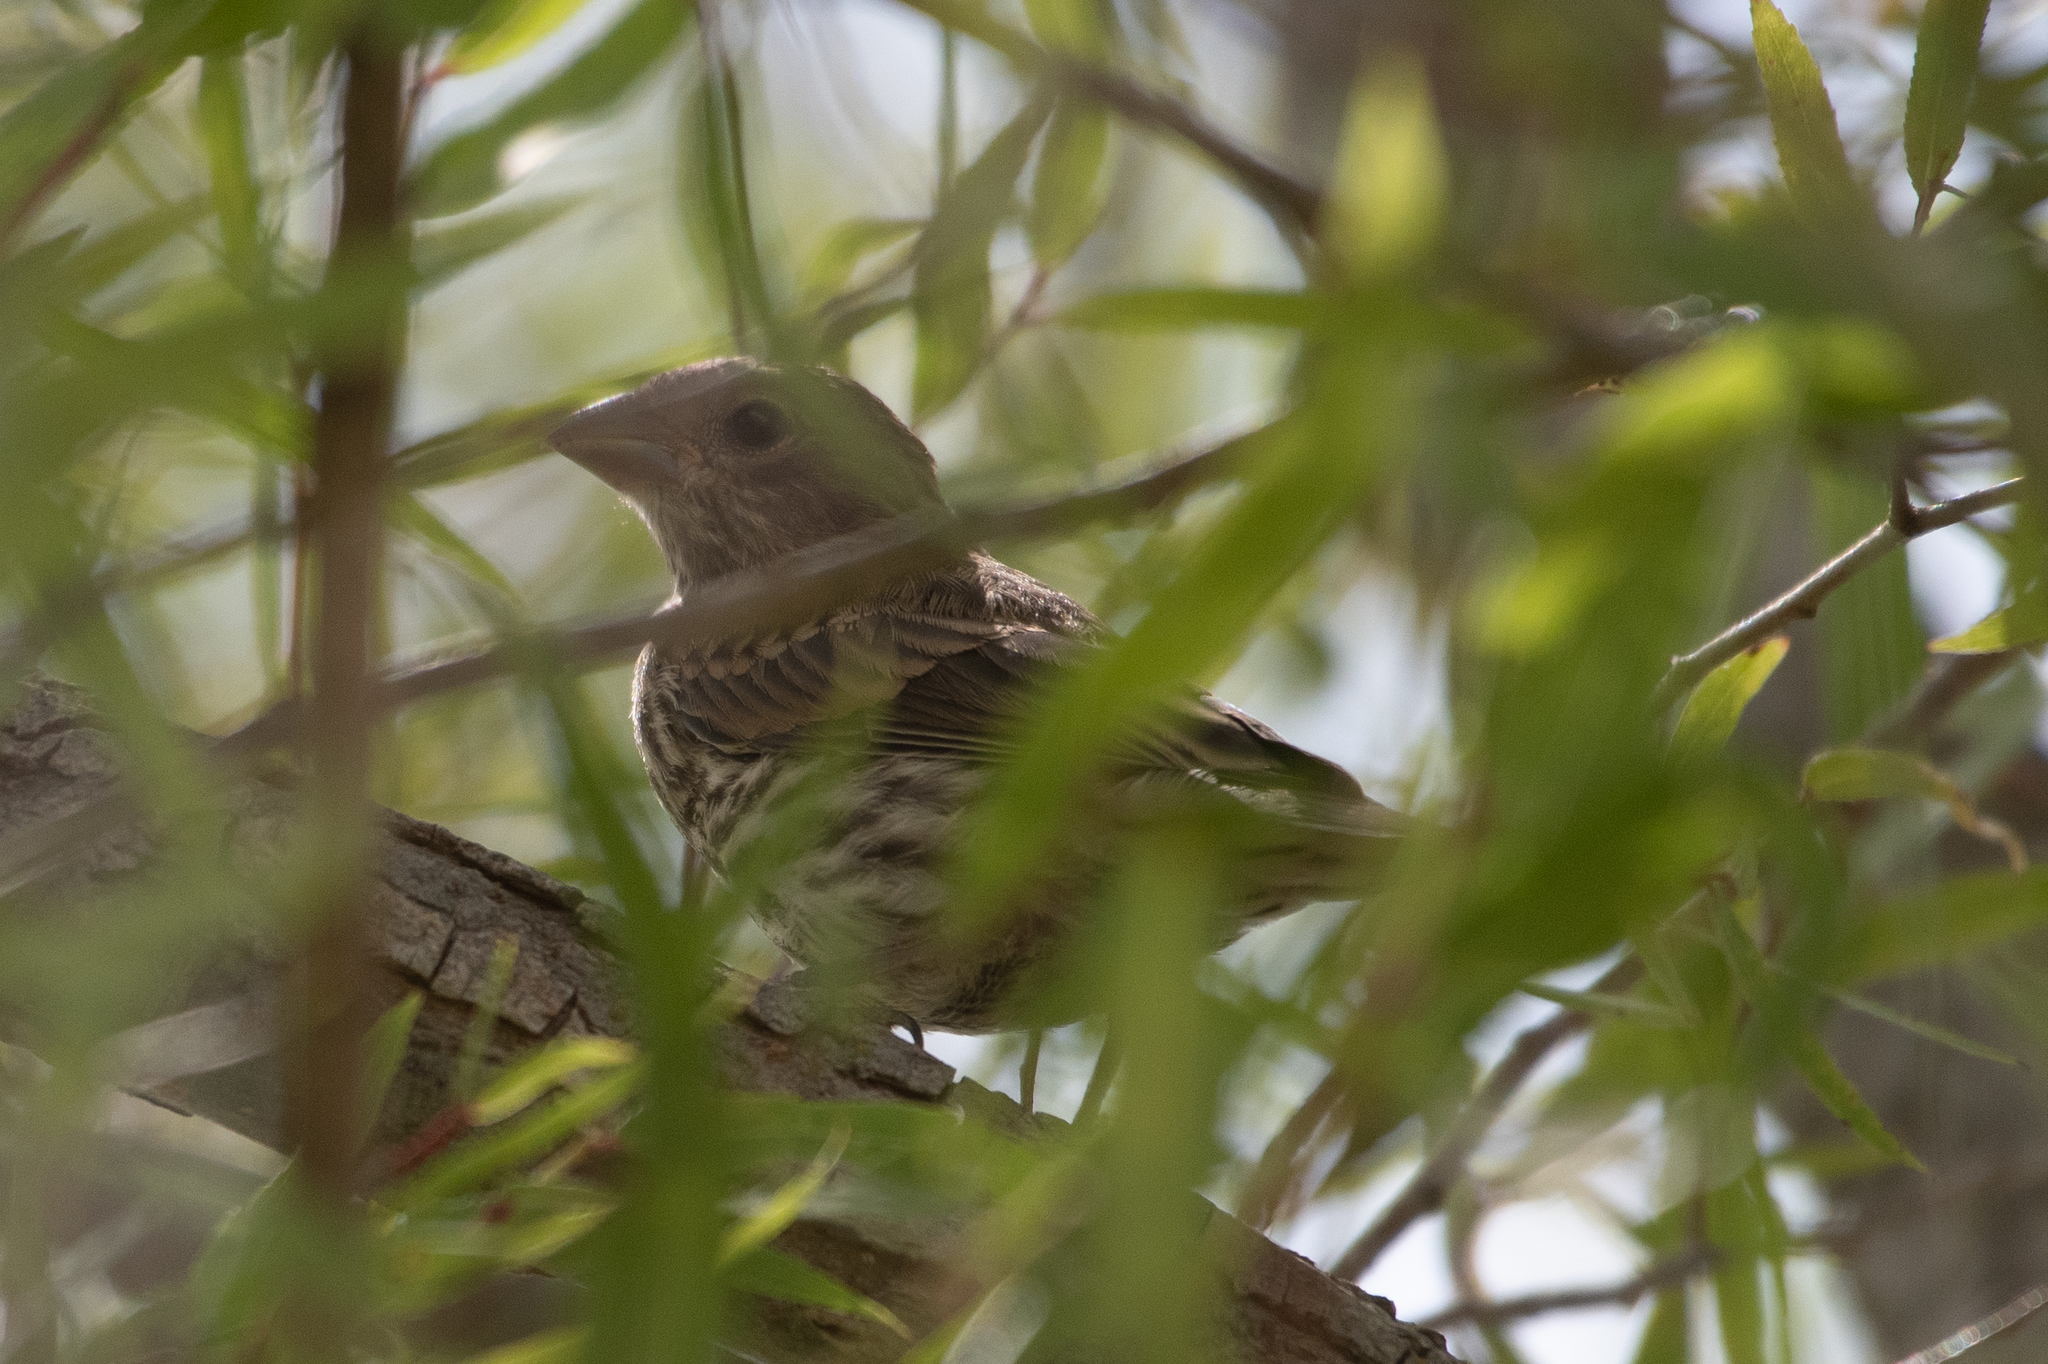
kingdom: Animalia
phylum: Chordata
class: Aves
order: Passeriformes
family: Fringillidae
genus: Haemorhous
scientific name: Haemorhous mexicanus
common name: House finch
